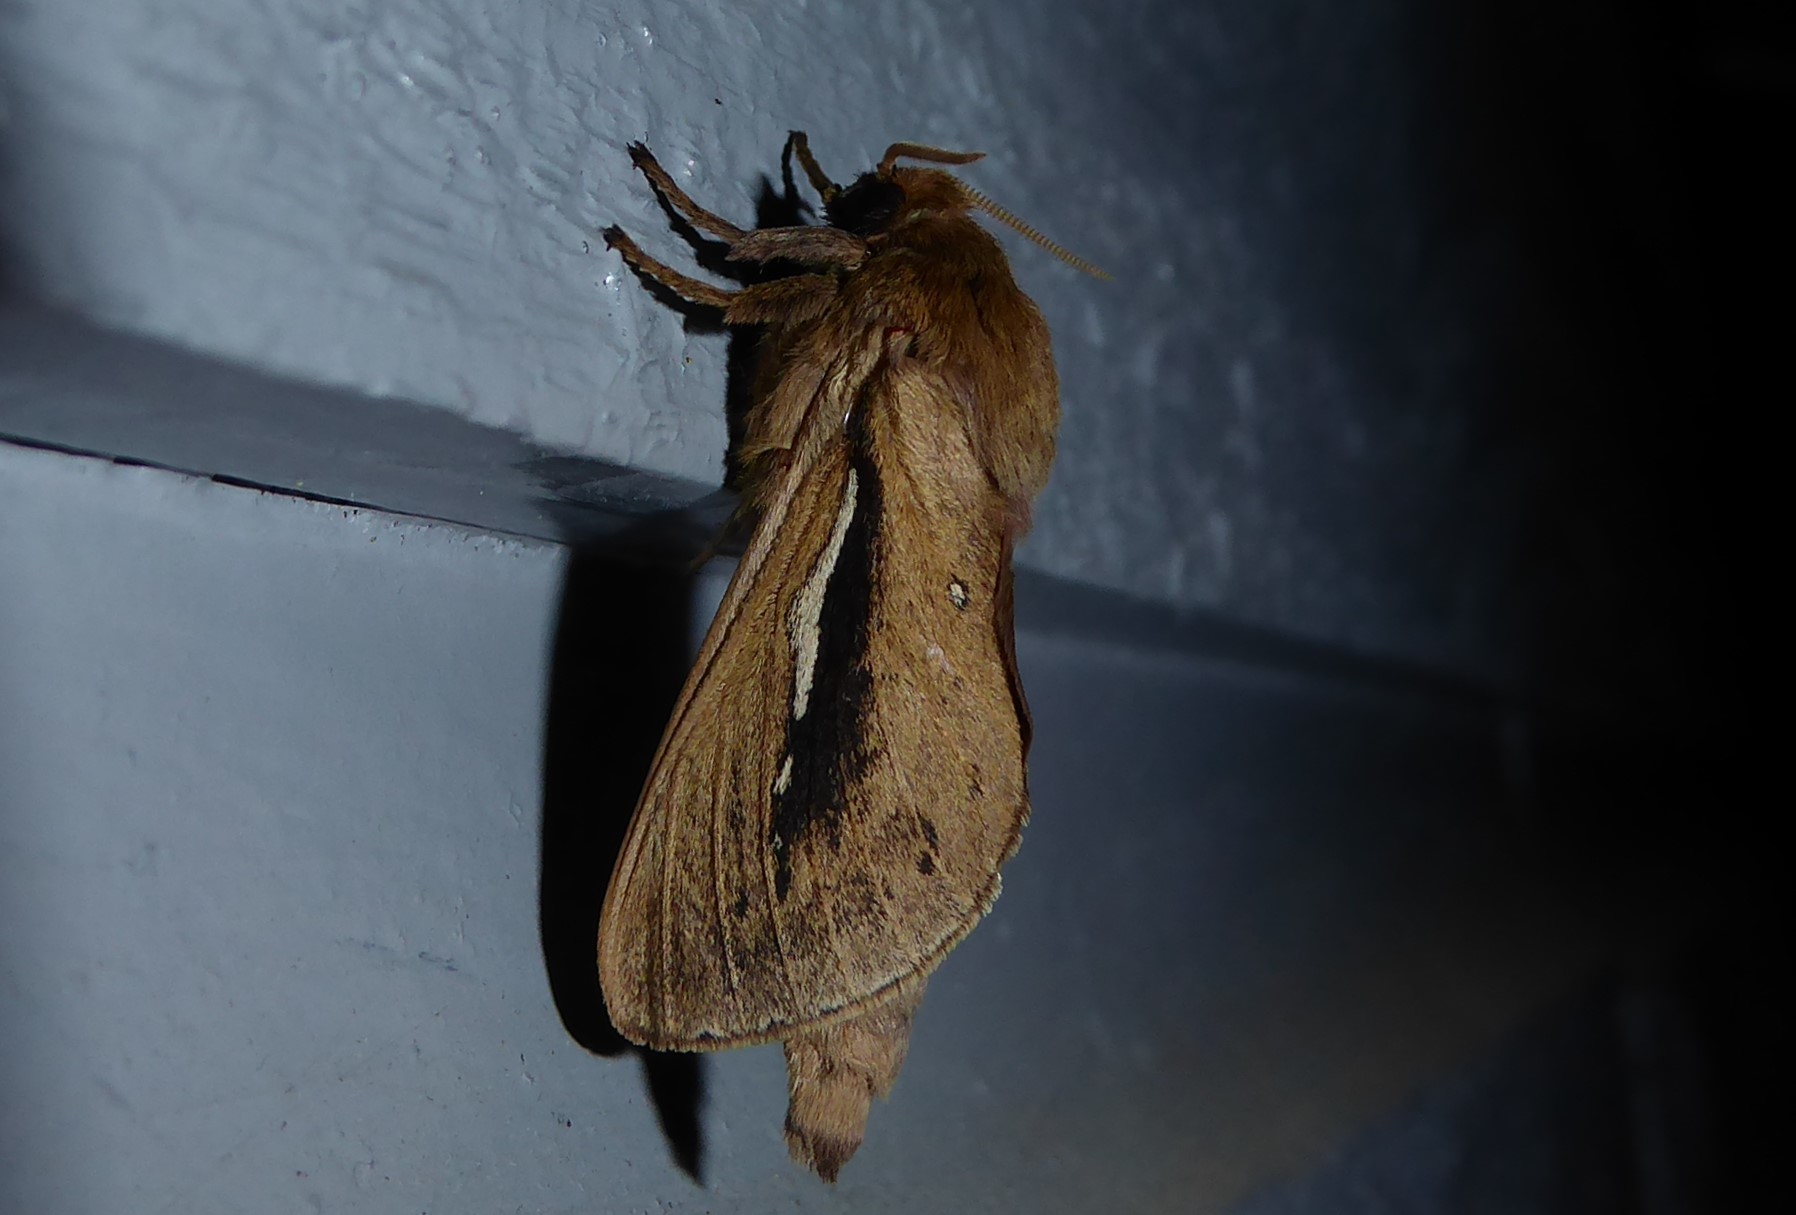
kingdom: Animalia
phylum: Arthropoda
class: Insecta
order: Lepidoptera
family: Hepialidae
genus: Wiseana
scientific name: Wiseana umbraculatus
